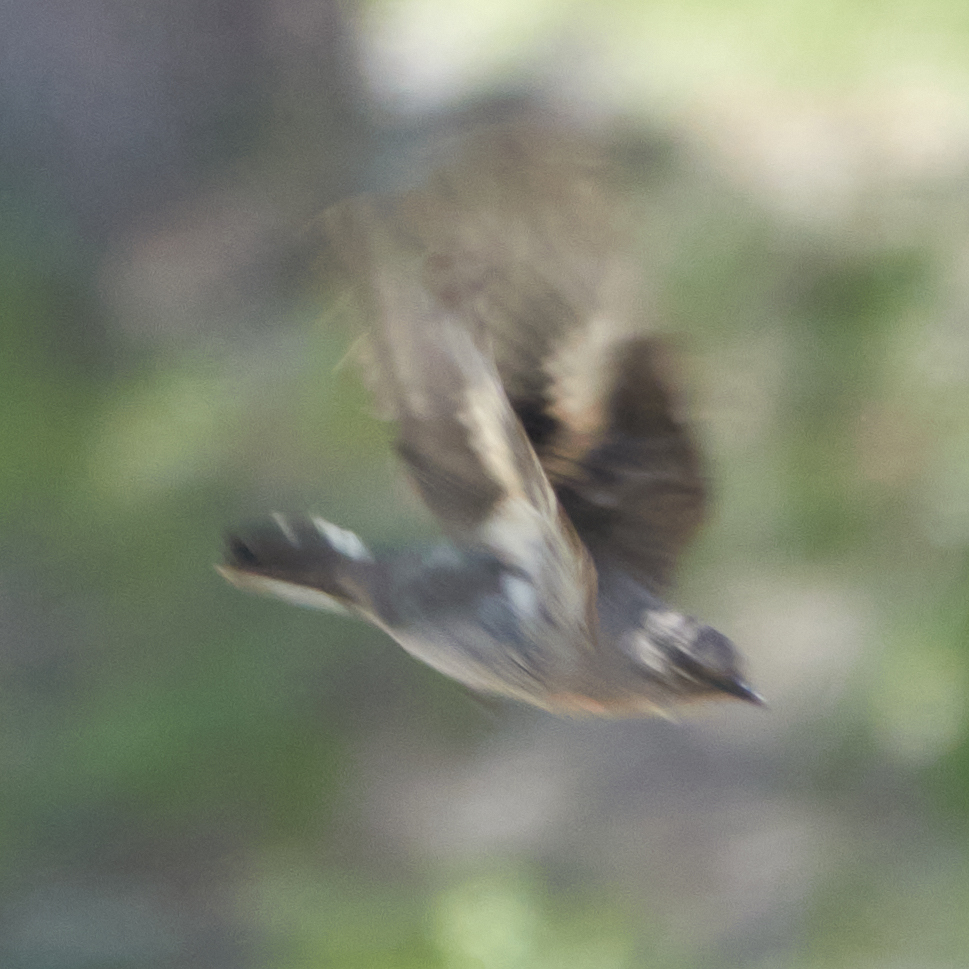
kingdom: Animalia
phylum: Chordata
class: Aves
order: Passeriformes
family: Turdidae
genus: Myadestes
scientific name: Myadestes townsendi
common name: Townsend's solitaire
